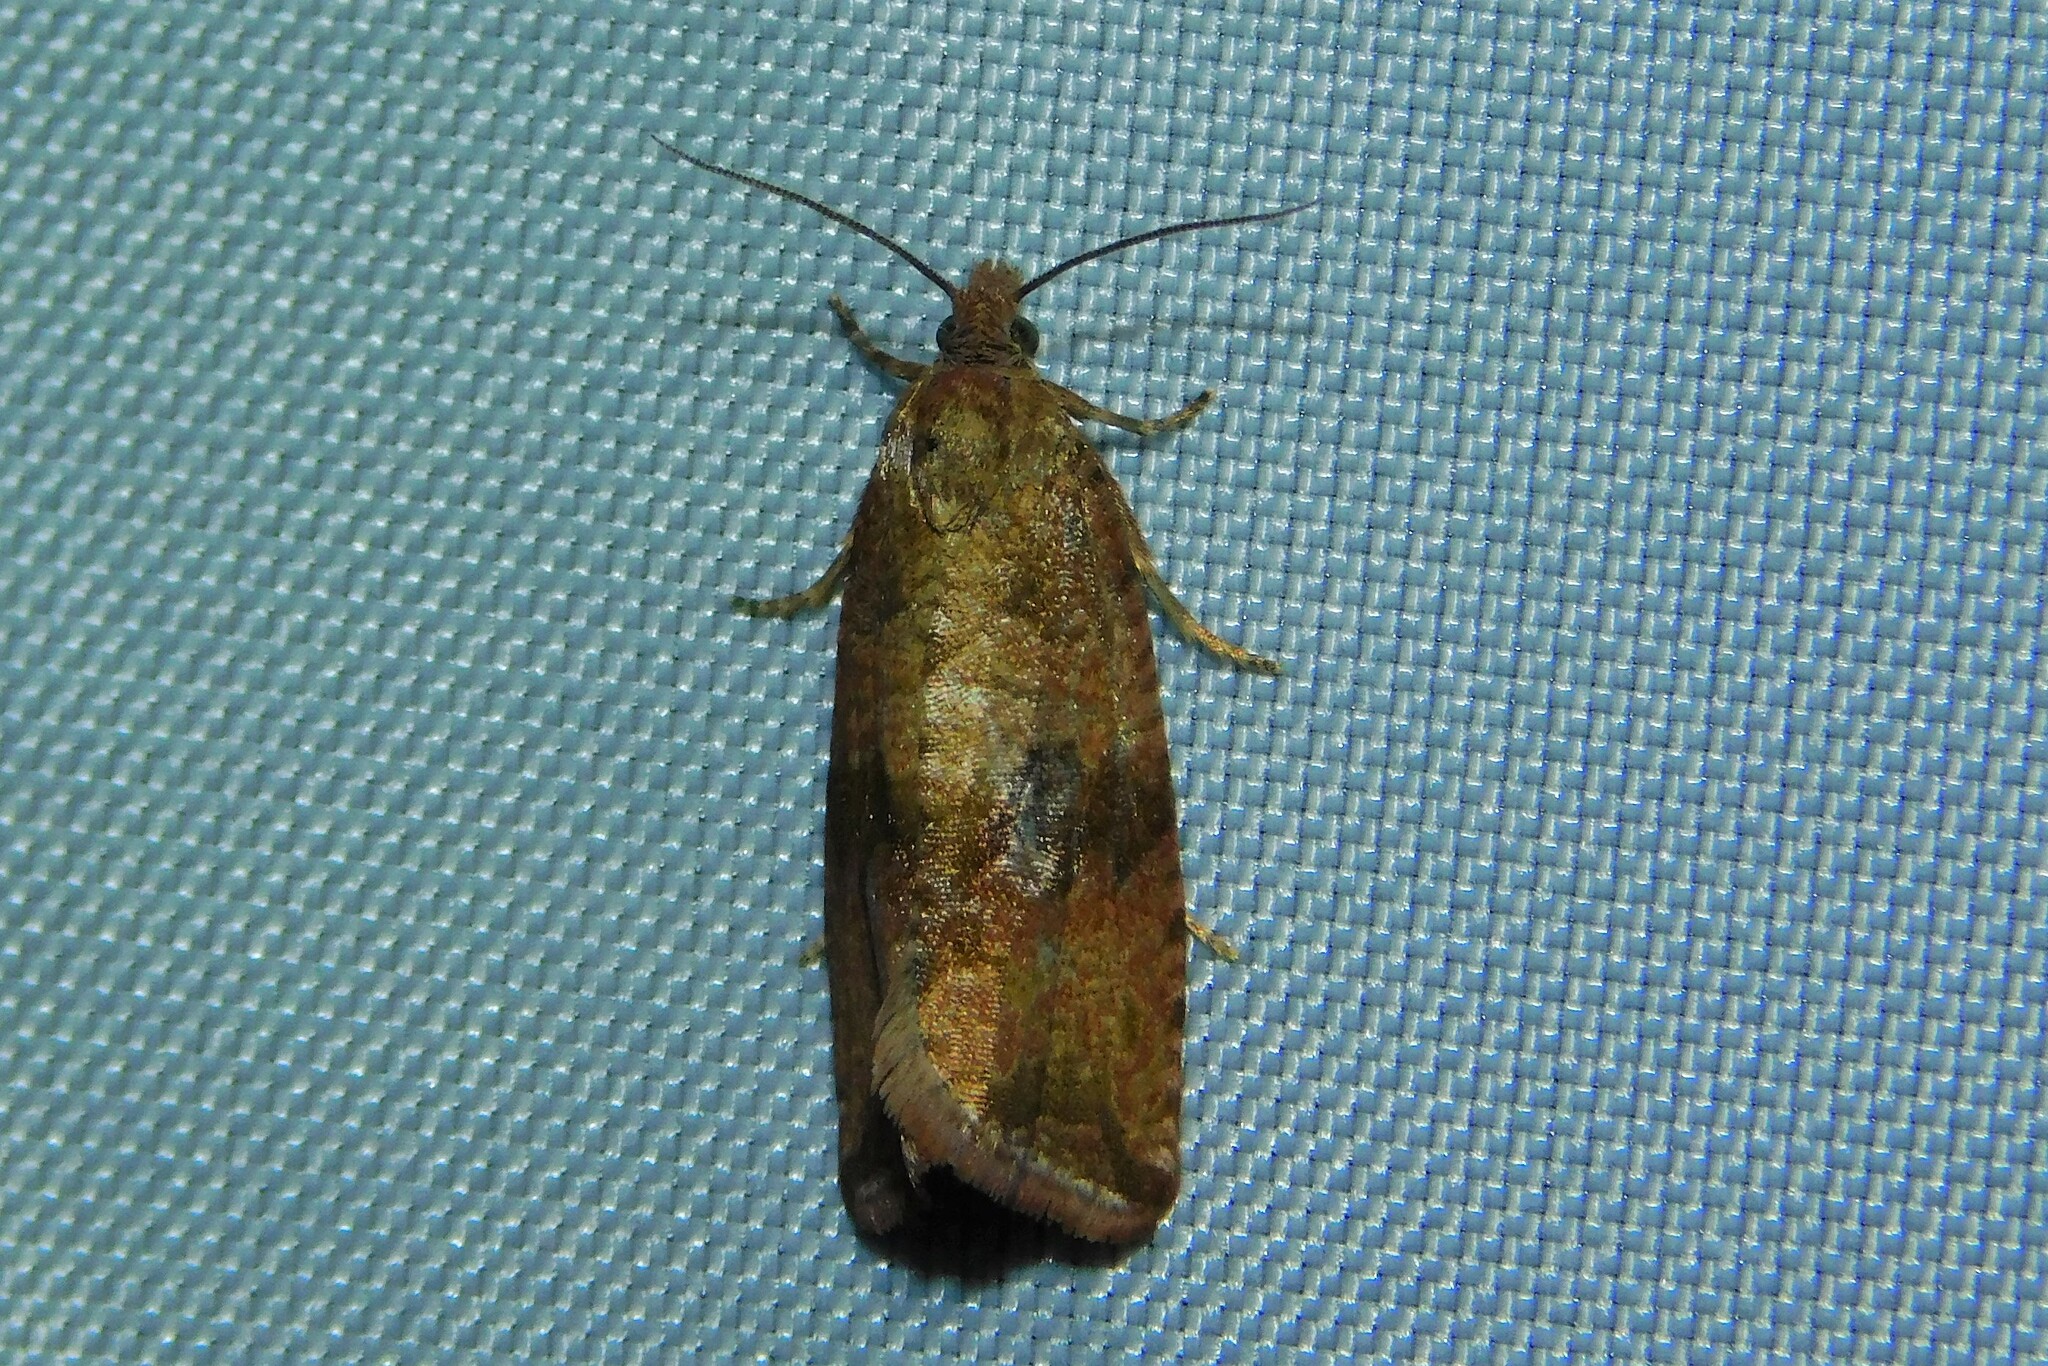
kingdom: Animalia
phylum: Arthropoda
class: Insecta
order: Lepidoptera
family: Tortricidae
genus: Celypha
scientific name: Celypha striana
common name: Barred marble
